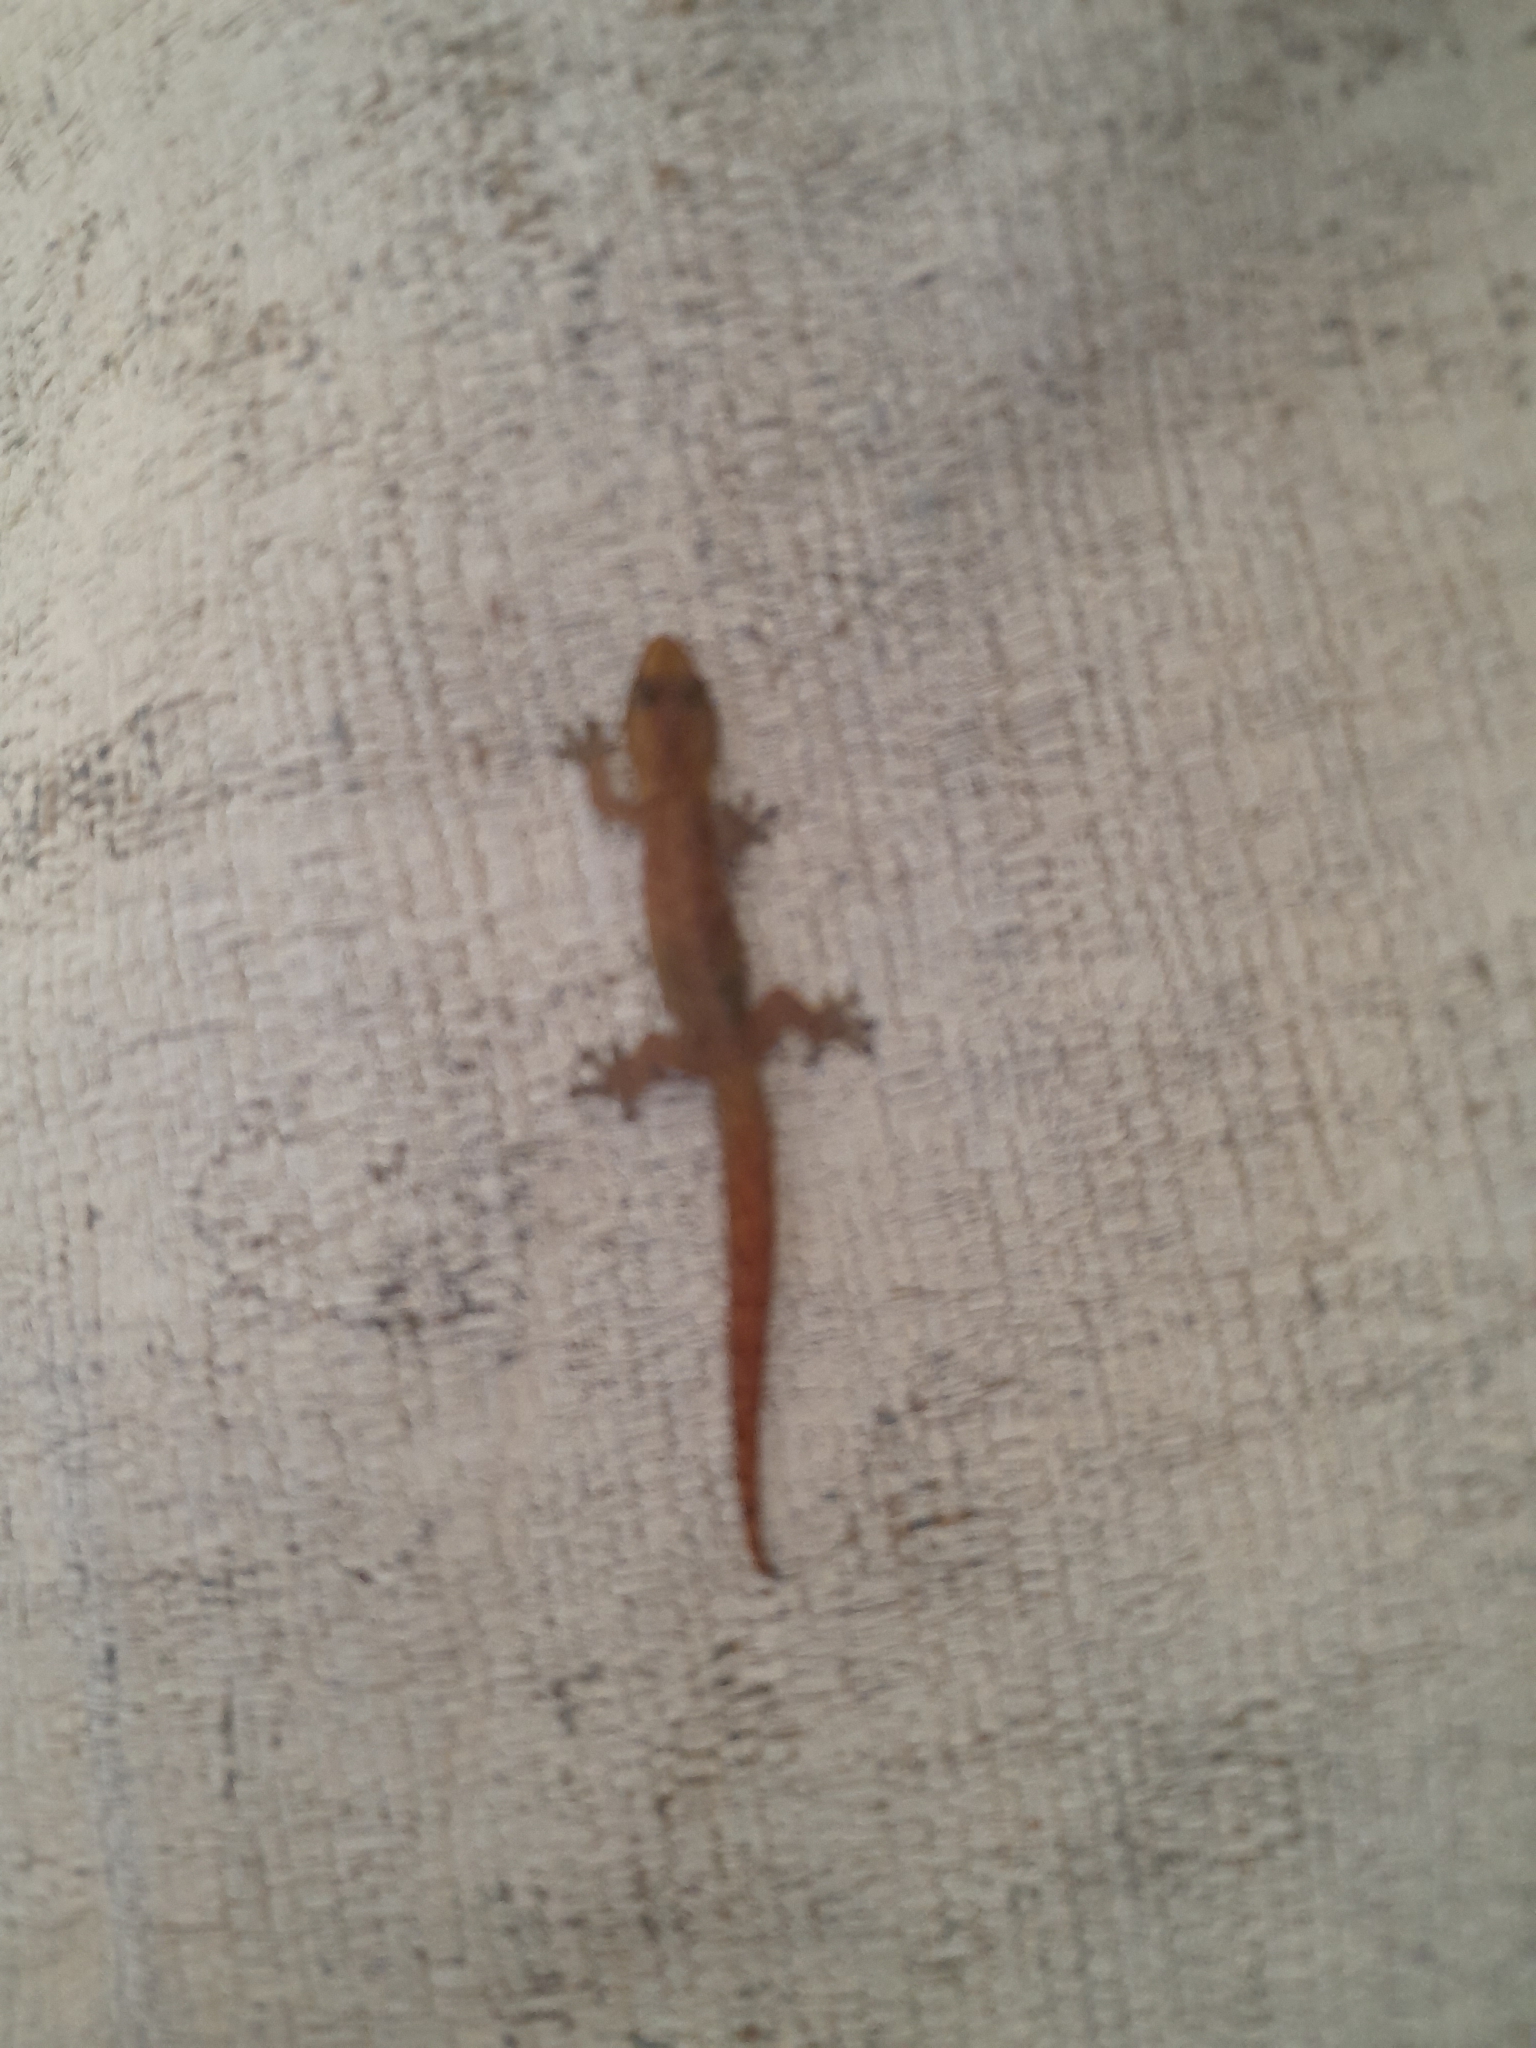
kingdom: Animalia
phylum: Chordata
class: Squamata
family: Gekkonidae
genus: Afrogecko
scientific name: Afrogecko porphyreus
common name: Marbled leaf-toed gecko
